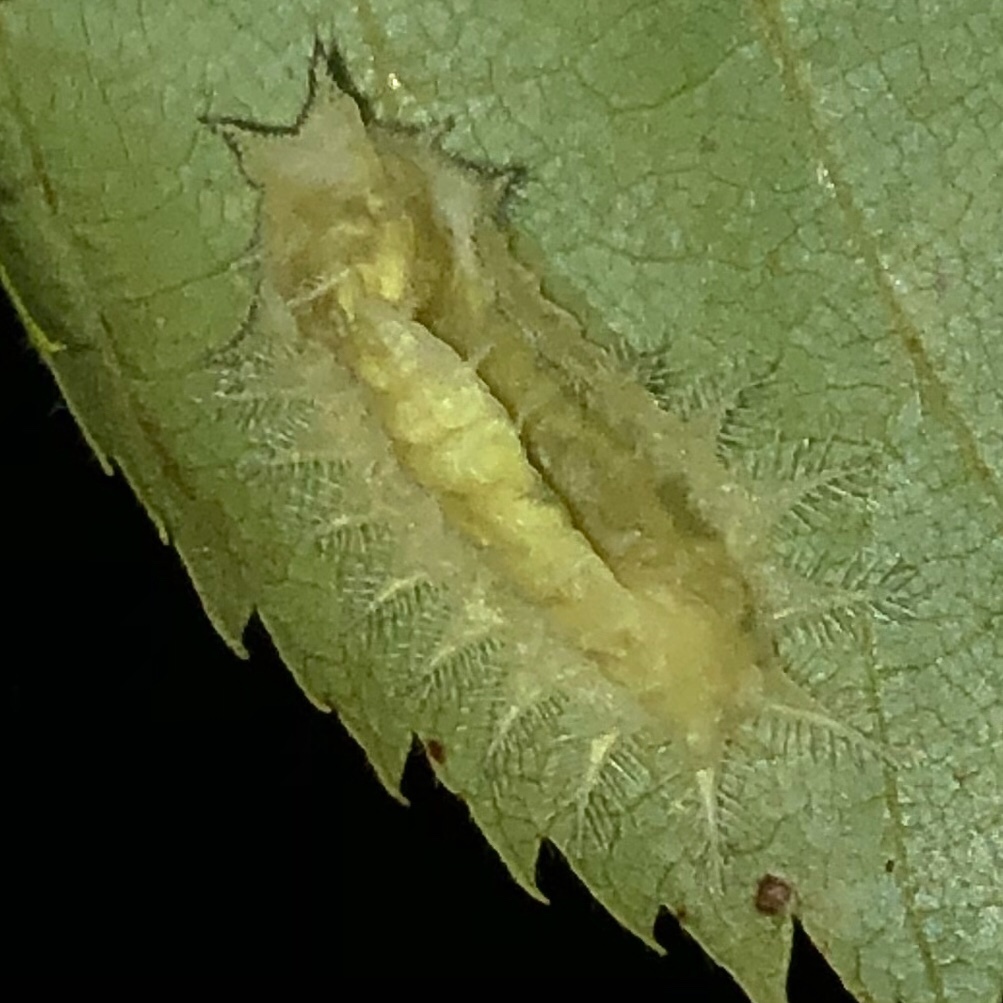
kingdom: Animalia
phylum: Arthropoda
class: Insecta
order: Lepidoptera
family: Limacodidae
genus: Isa
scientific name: Isa textula
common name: Crowned slug moth
